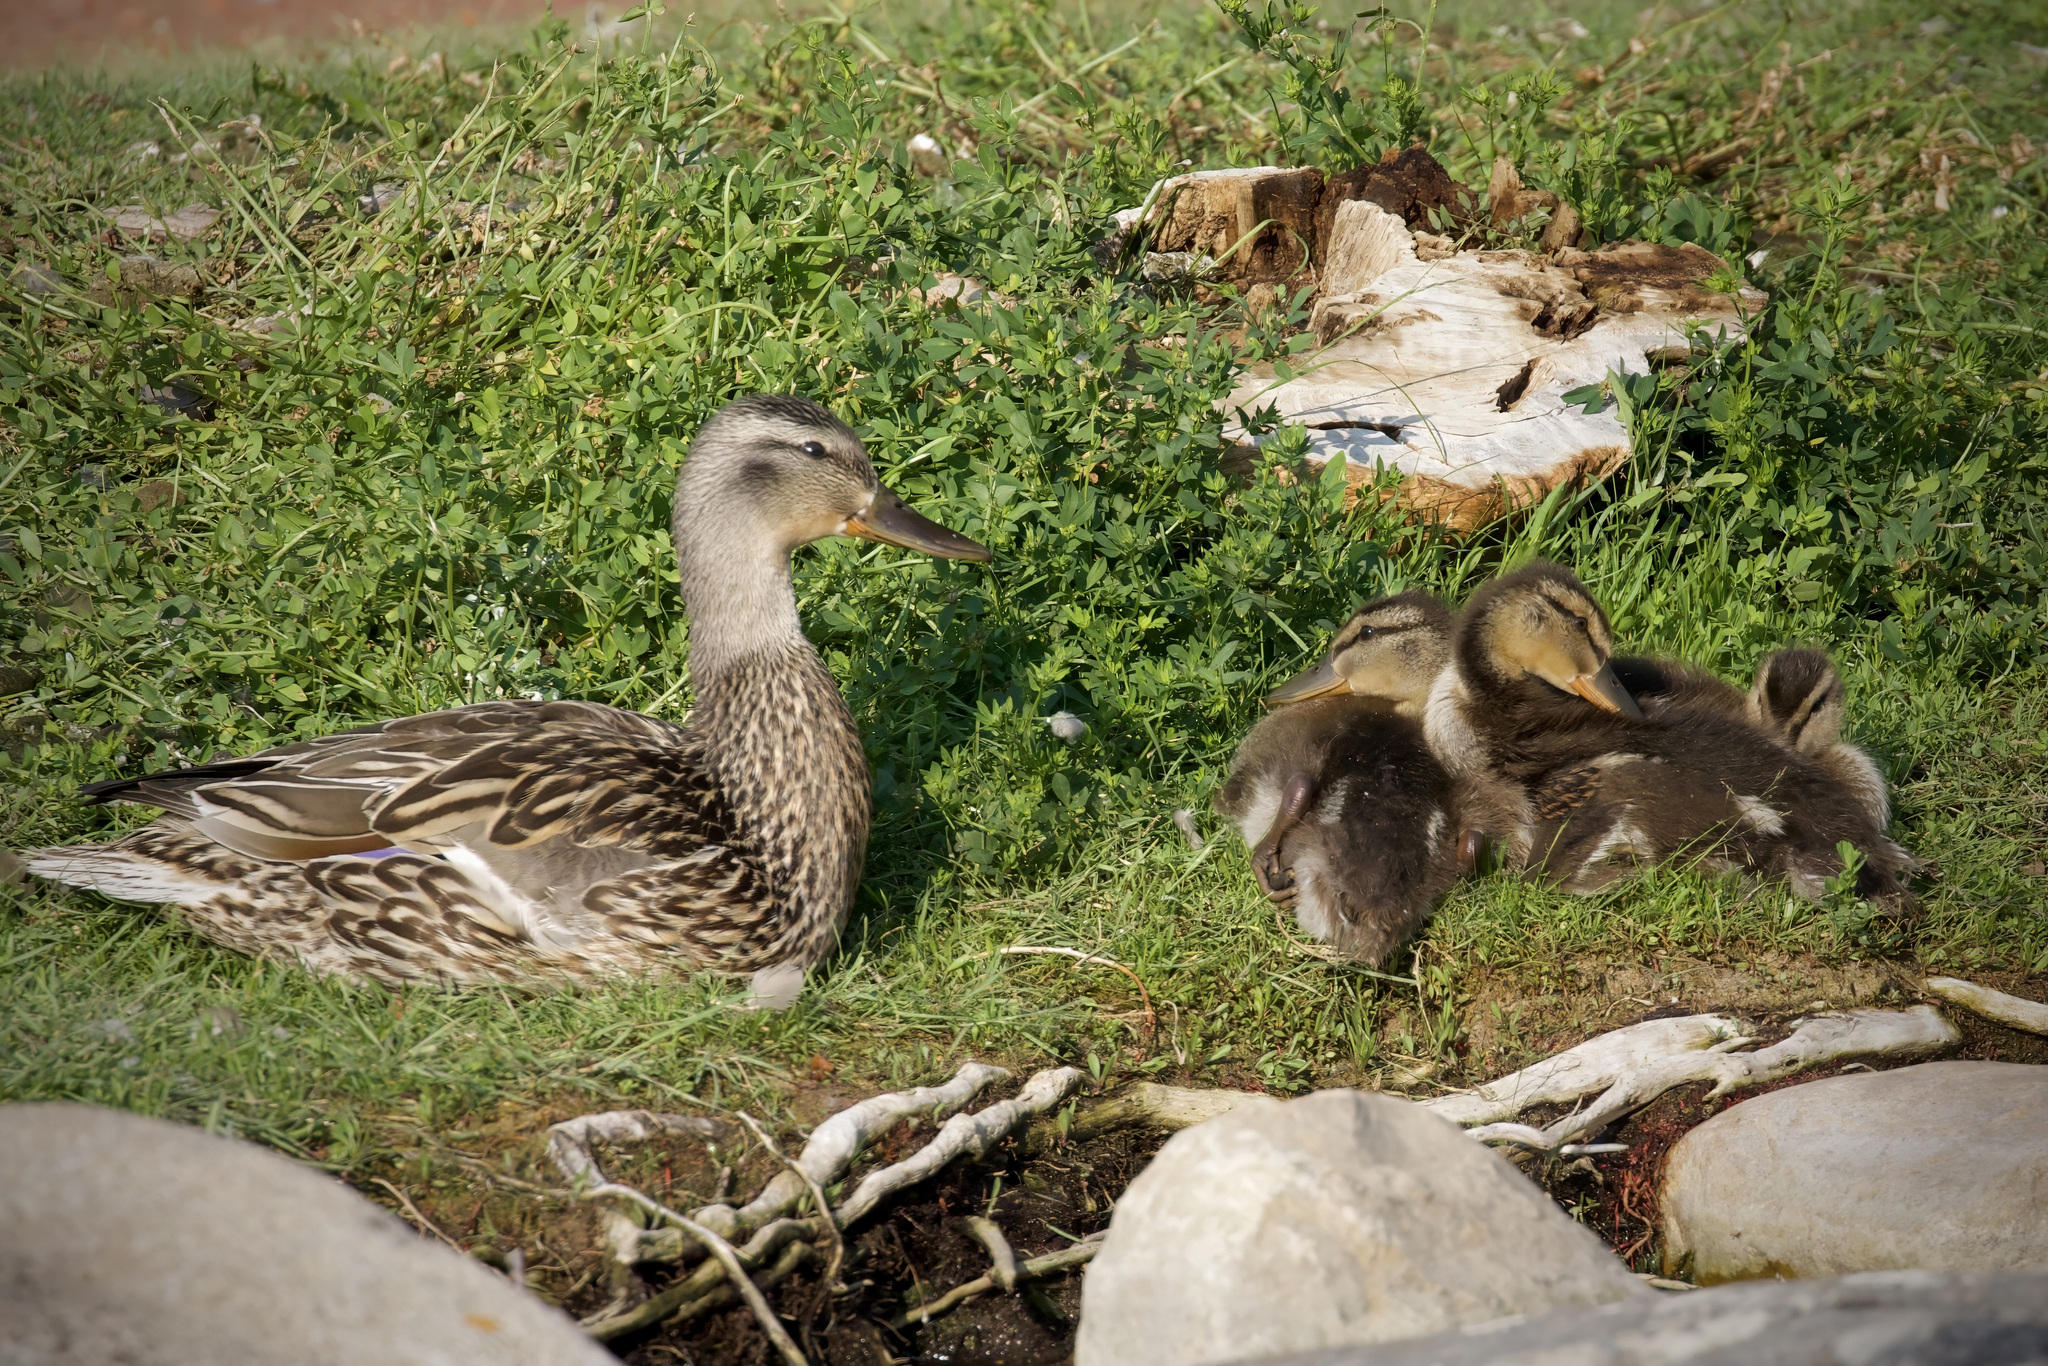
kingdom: Animalia
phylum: Chordata
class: Aves
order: Anseriformes
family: Anatidae
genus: Anas
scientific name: Anas platyrhynchos
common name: Mallard
